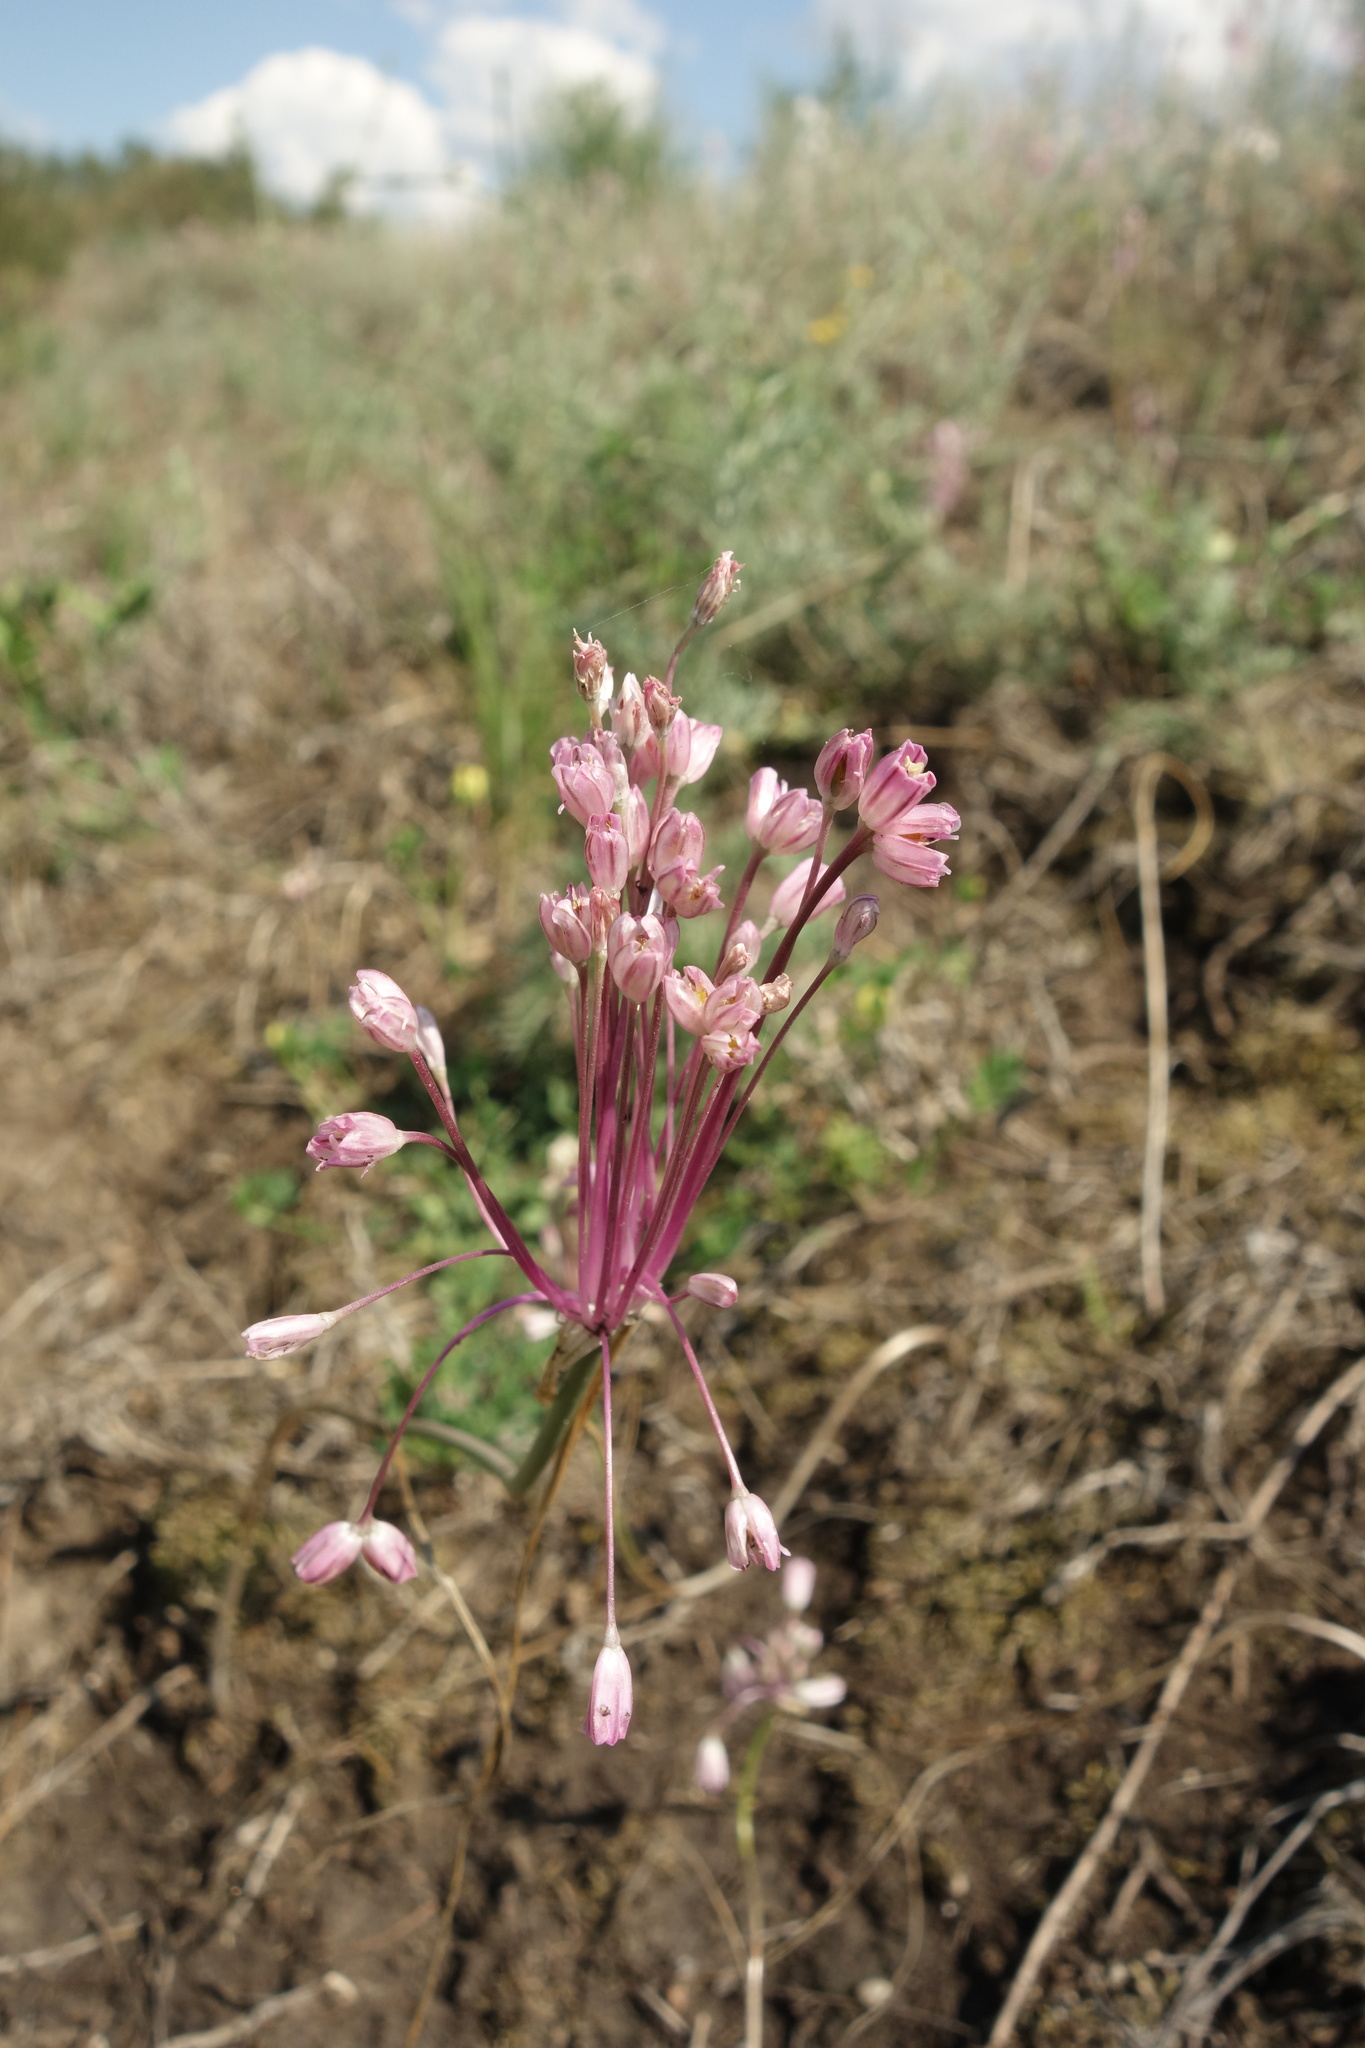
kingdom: Plantae
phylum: Tracheophyta
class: Liliopsida
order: Asparagales
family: Amaryllidaceae
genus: Allium
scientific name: Allium praescissum
